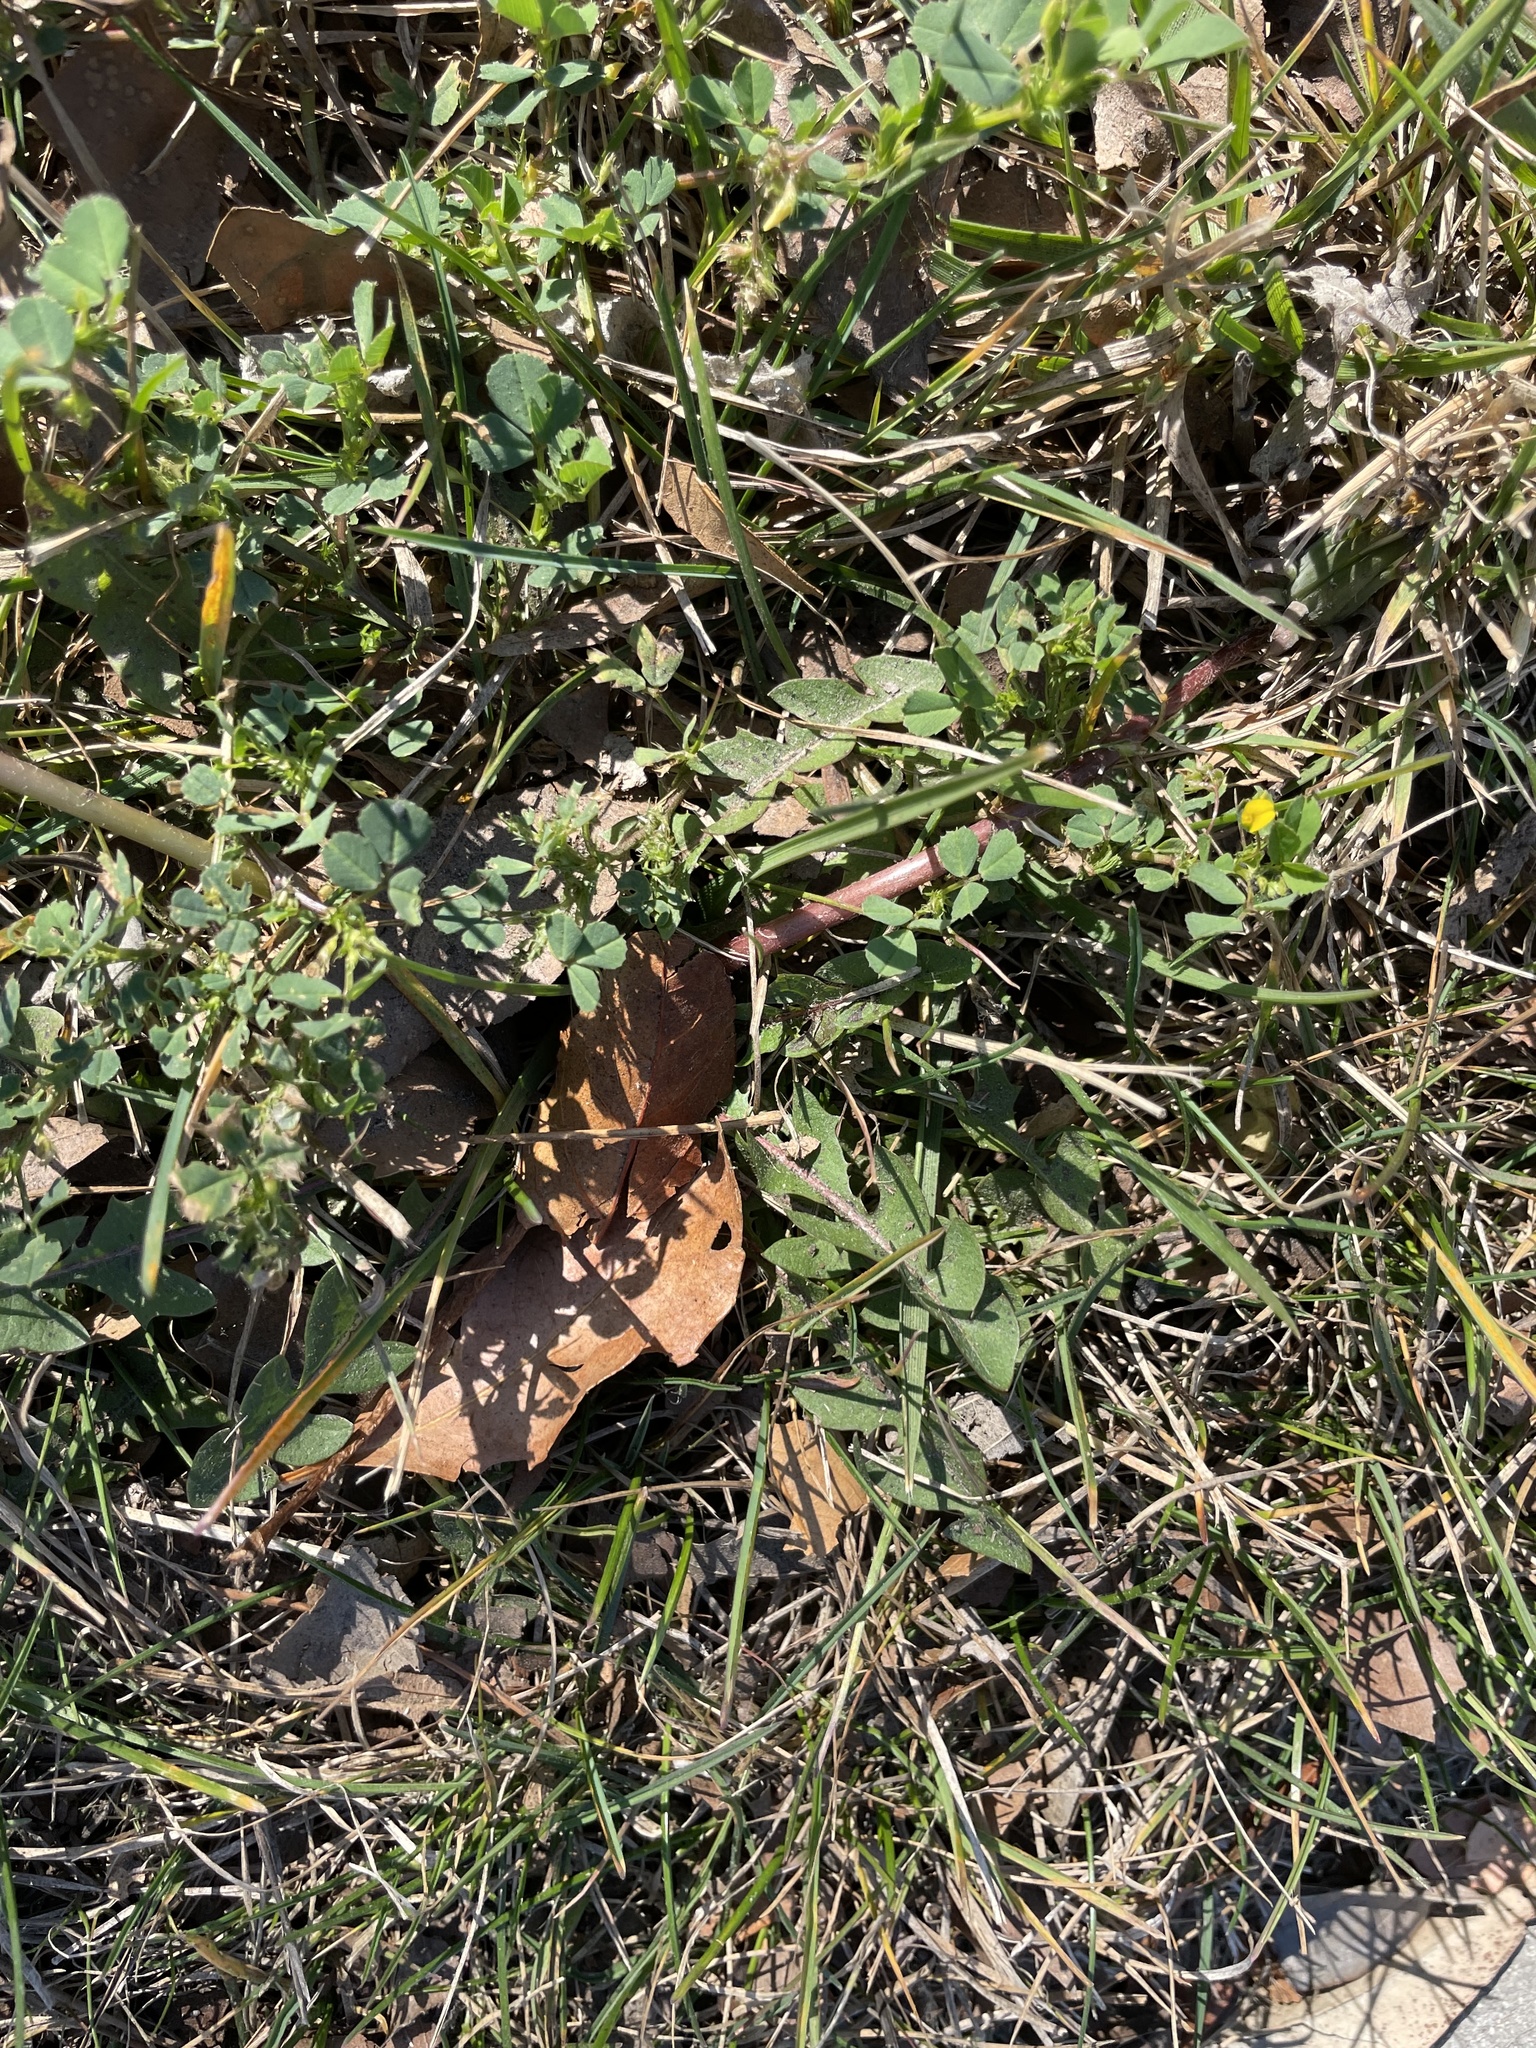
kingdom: Plantae
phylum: Tracheophyta
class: Magnoliopsida
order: Asterales
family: Asteraceae
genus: Taraxacum
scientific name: Taraxacum officinale
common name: Common dandelion
